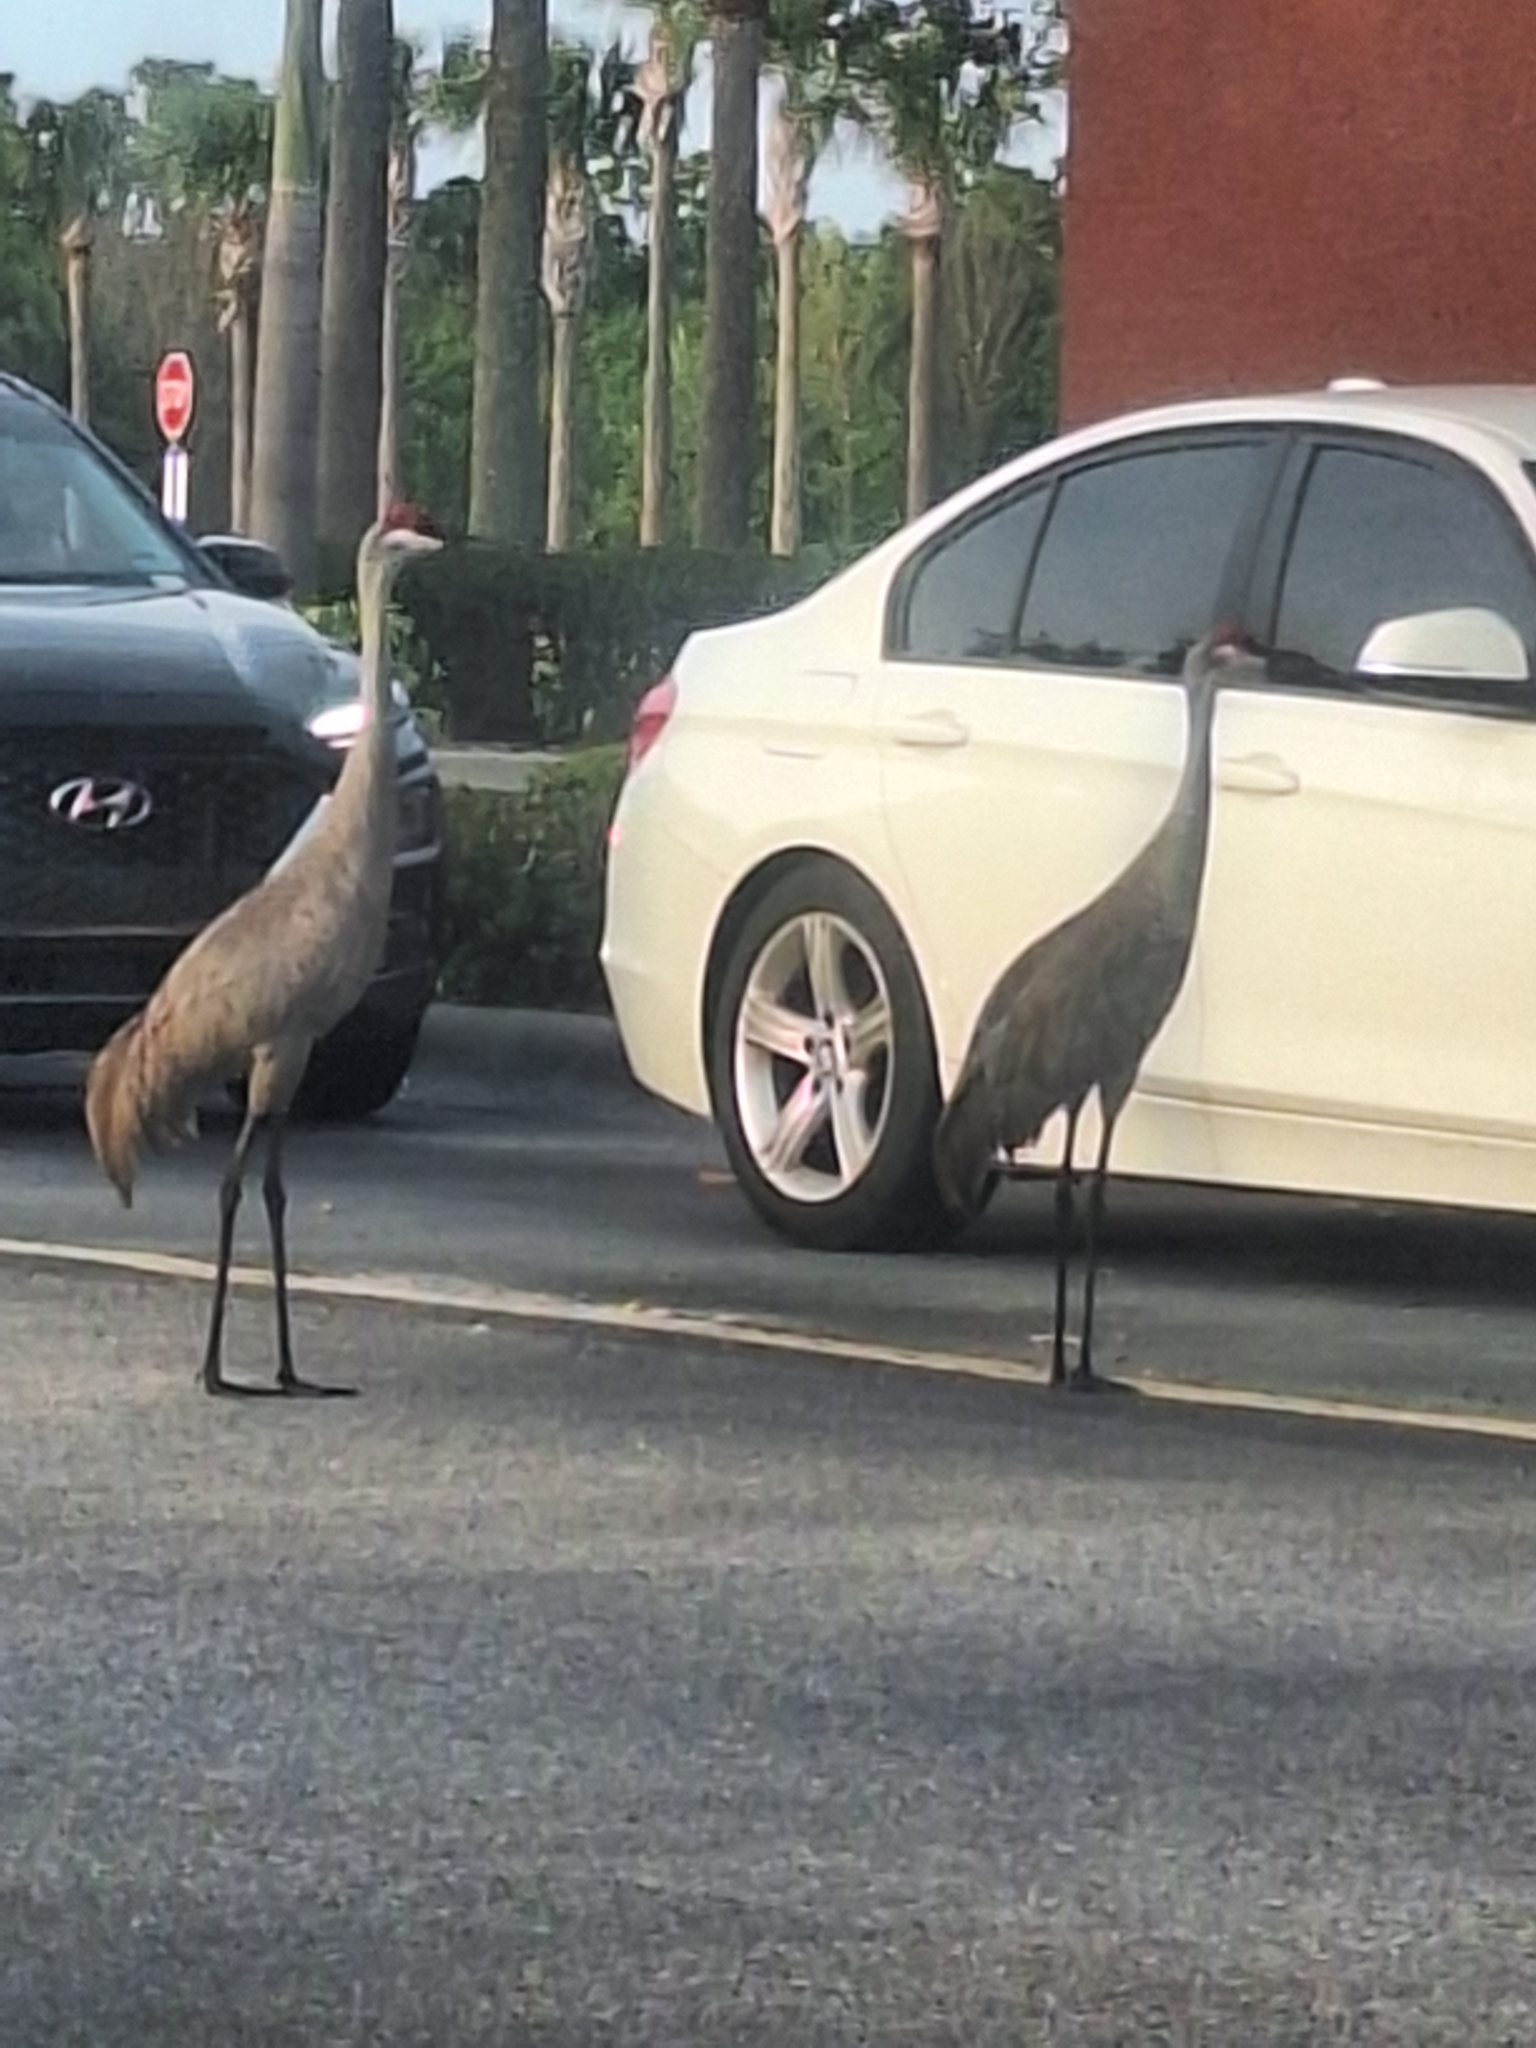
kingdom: Animalia
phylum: Chordata
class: Aves
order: Gruiformes
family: Gruidae
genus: Grus
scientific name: Grus canadensis
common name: Sandhill crane
